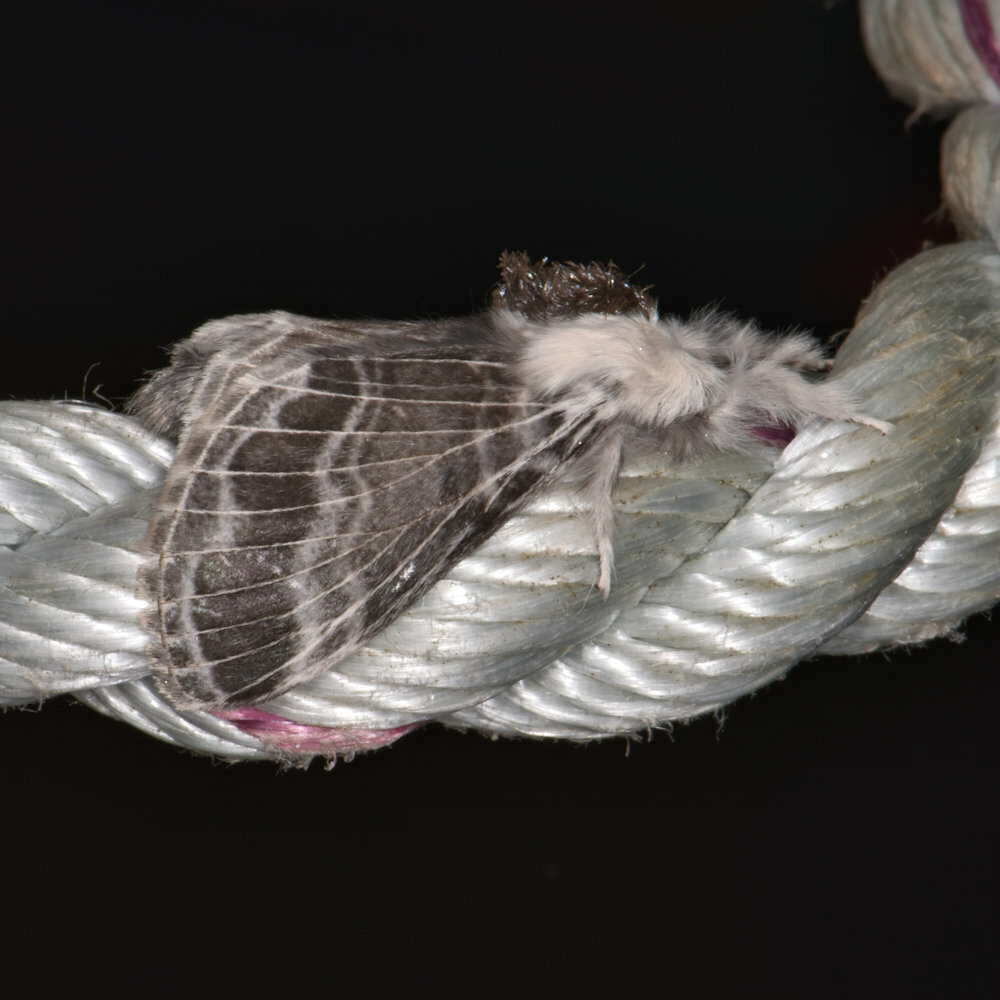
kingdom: Animalia
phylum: Arthropoda
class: Insecta
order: Lepidoptera
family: Lasiocampidae
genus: Tolype
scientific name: Tolype velleda
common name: Large tolype moth
